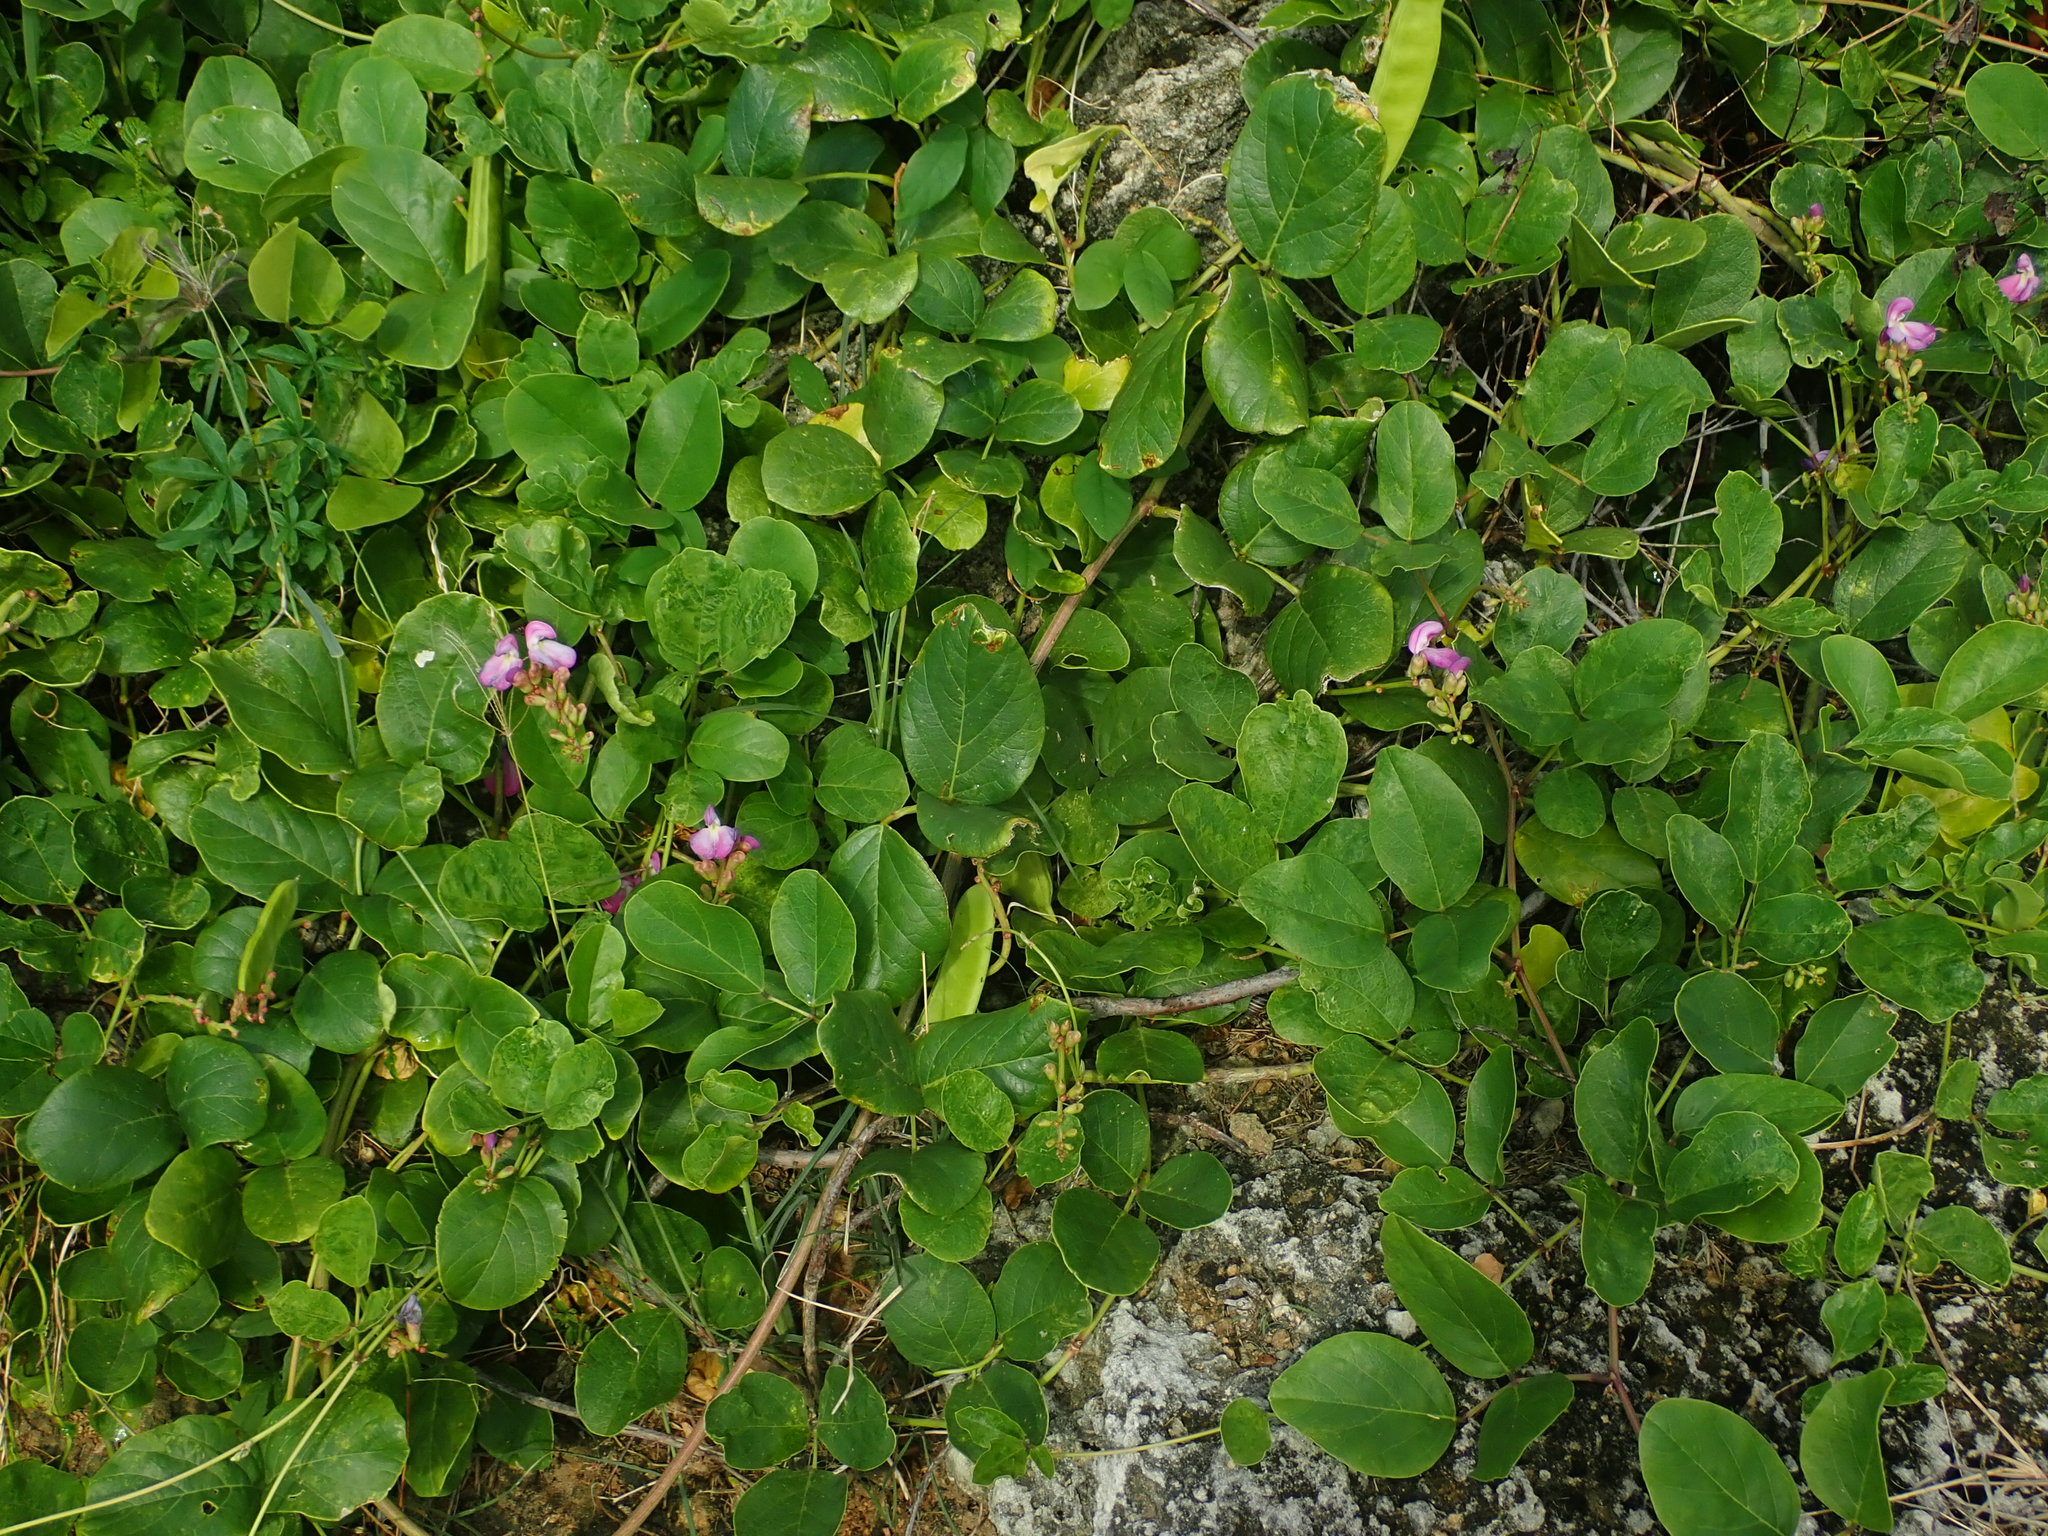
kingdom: Plantae
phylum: Tracheophyta
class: Magnoliopsida
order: Fabales
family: Fabaceae
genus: Canavalia
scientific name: Canavalia rosea
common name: Beach-bean
